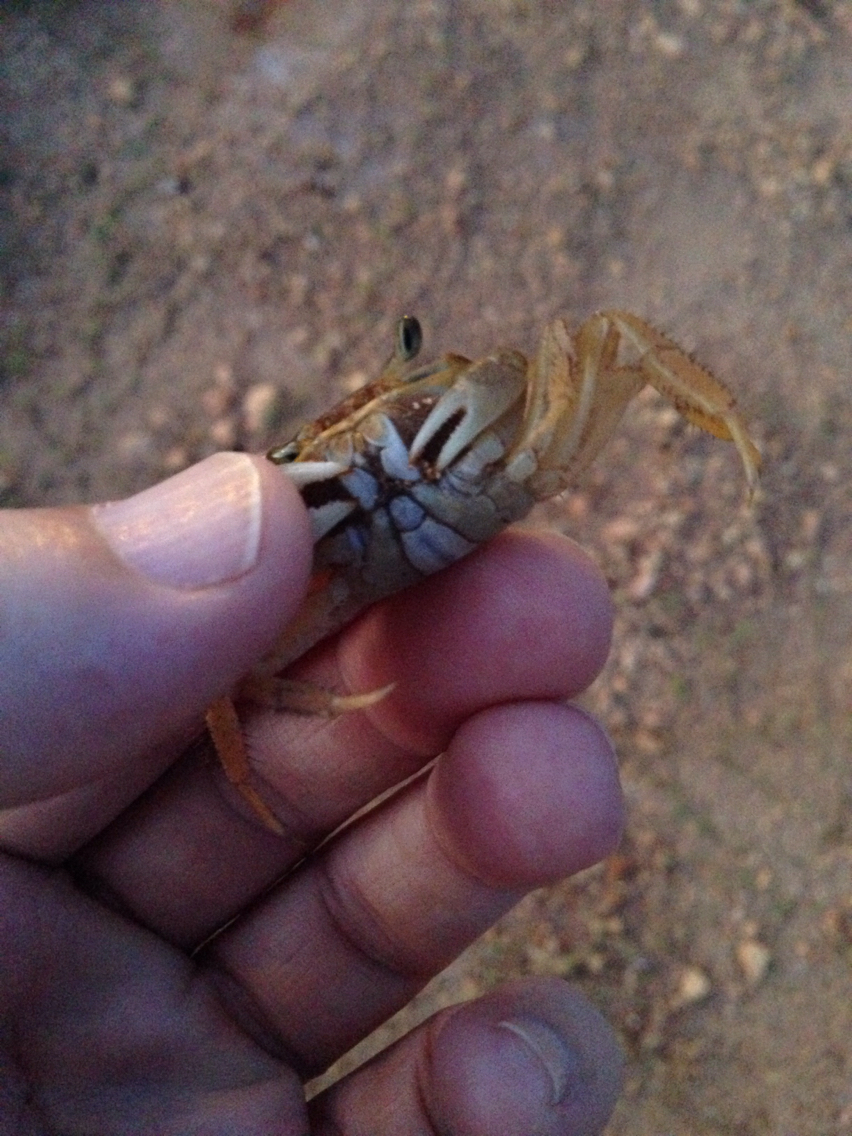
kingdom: Animalia
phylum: Arthropoda
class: Malacostraca
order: Decapoda
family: Ocypodidae
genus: Ocypode
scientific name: Ocypode quadrata
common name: Ghost crab
